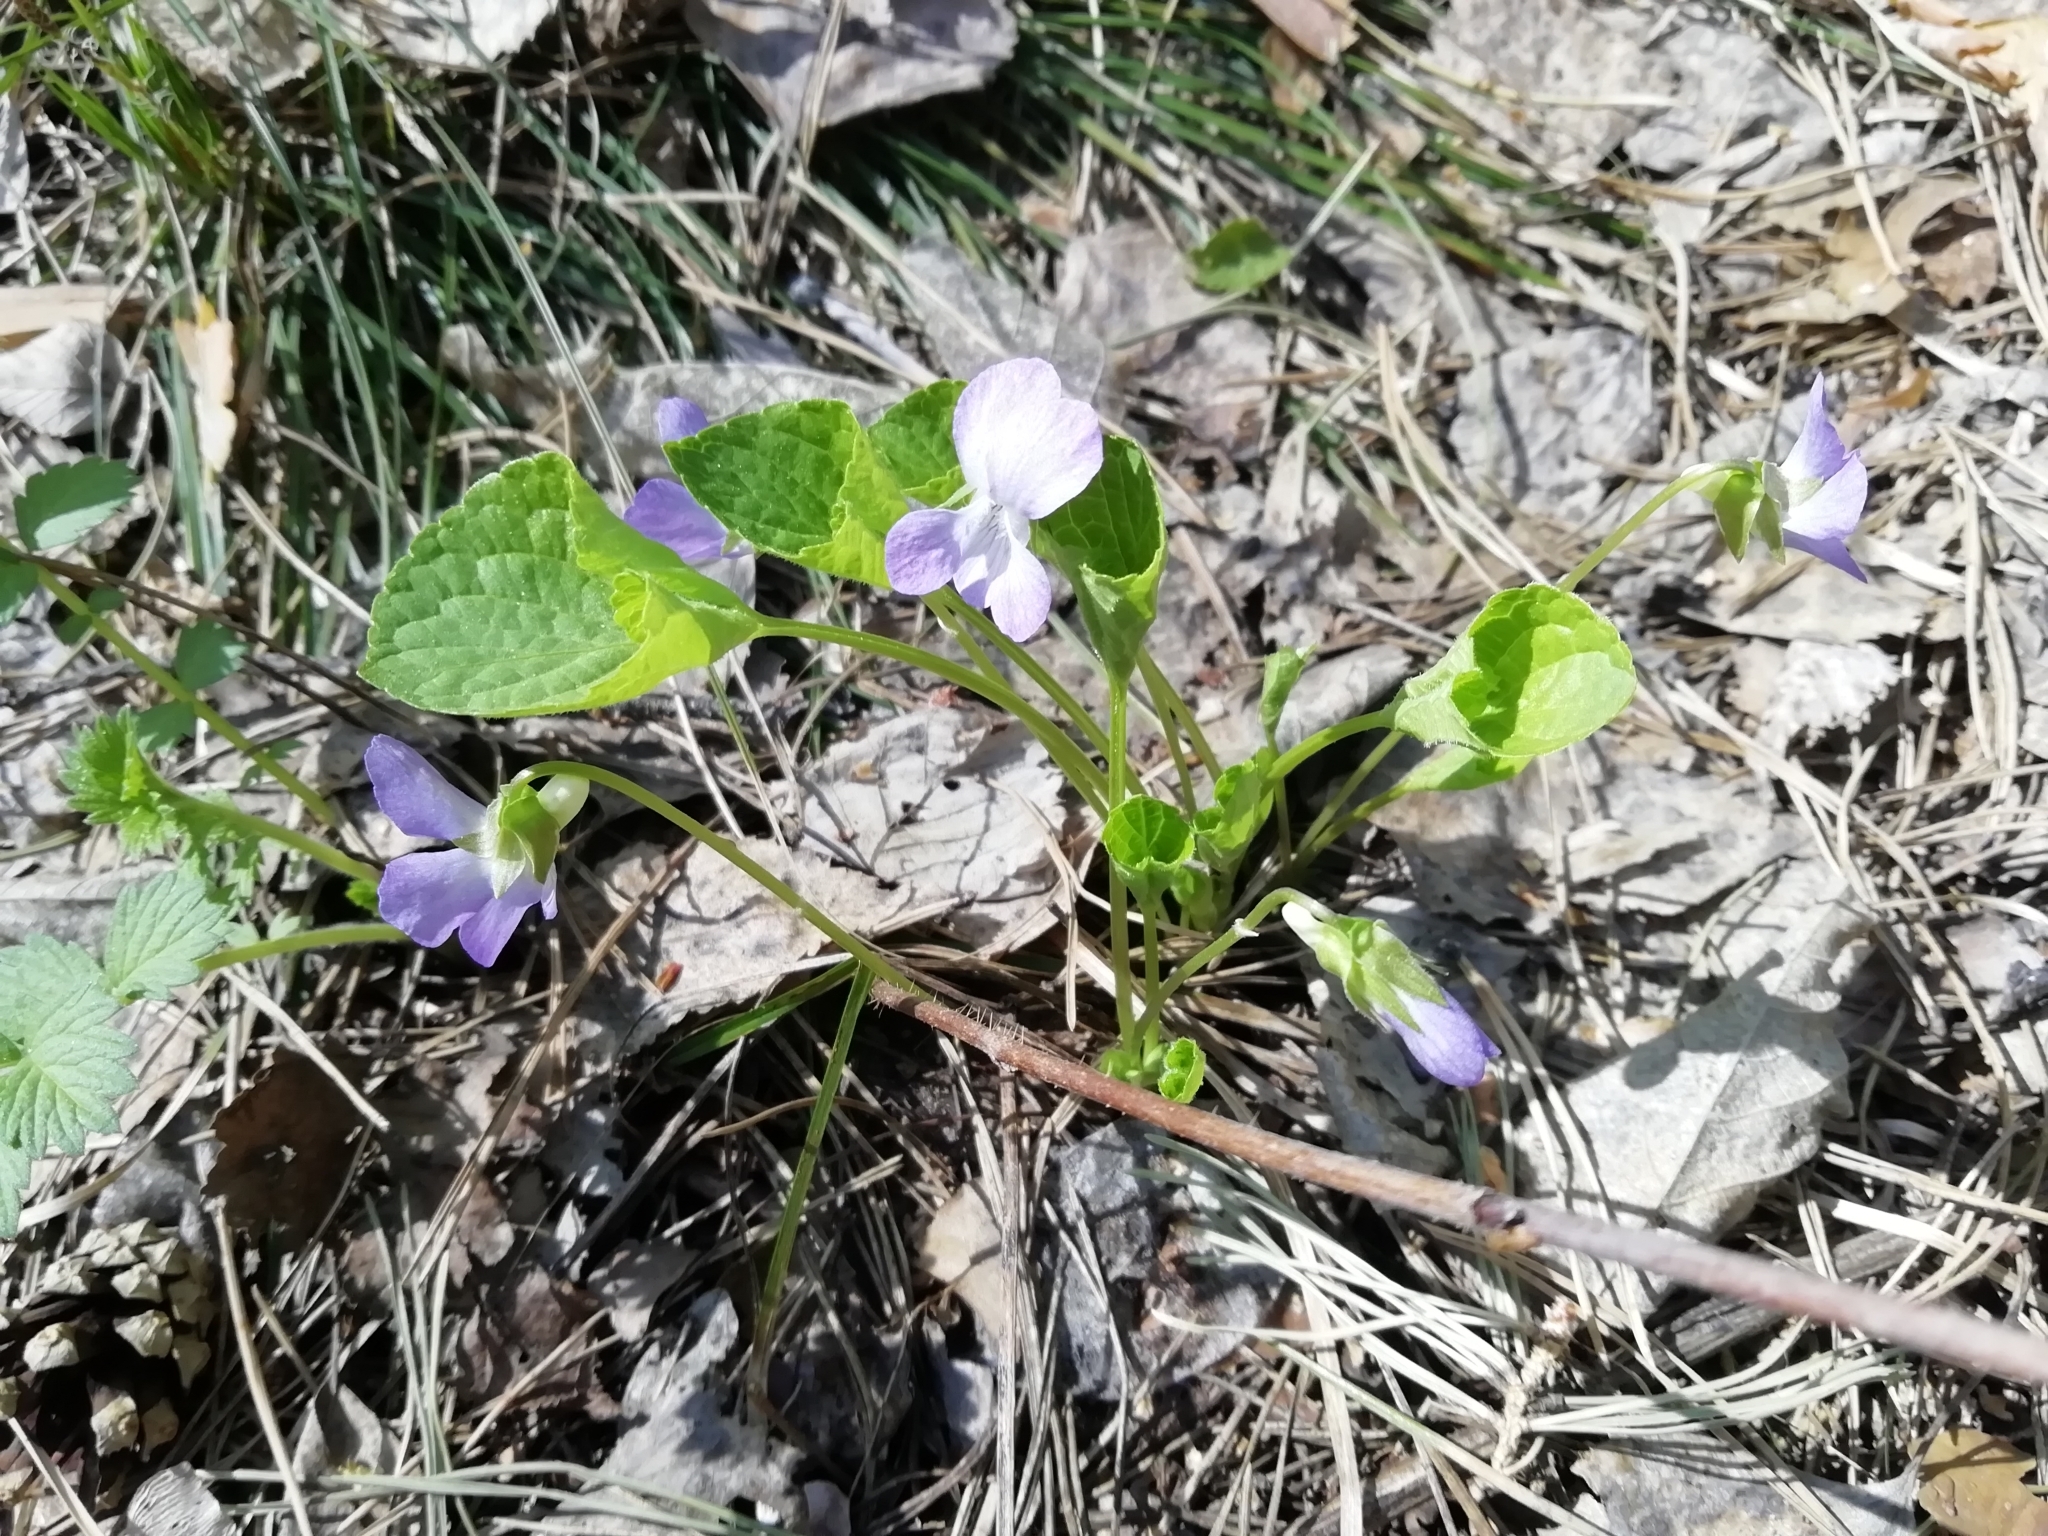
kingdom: Plantae
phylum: Tracheophyta
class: Magnoliopsida
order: Malpighiales
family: Violaceae
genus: Viola
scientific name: Viola mirabilis
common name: Wonder violet
